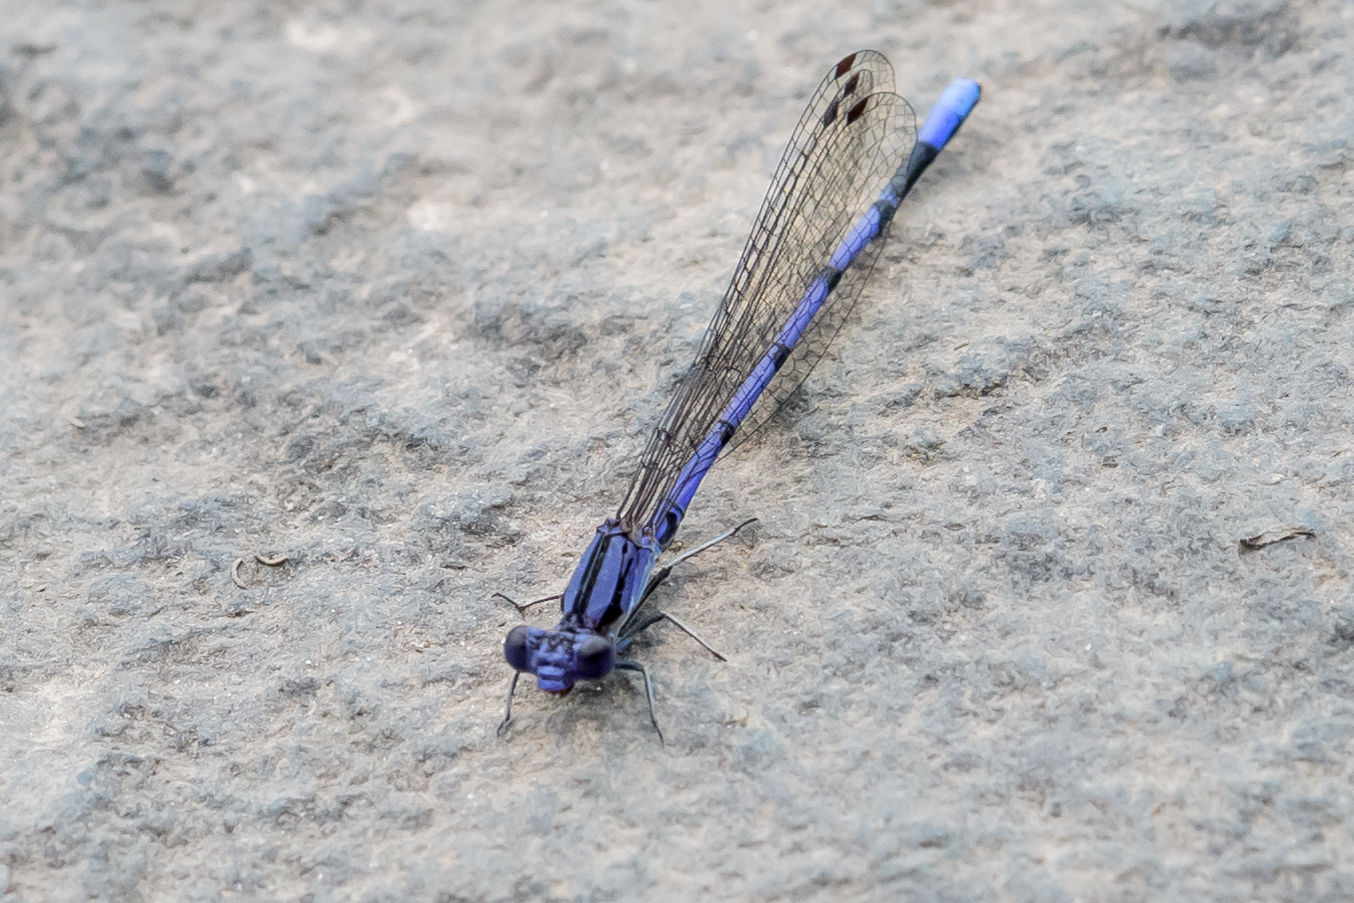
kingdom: Animalia
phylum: Arthropoda
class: Insecta
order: Odonata
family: Coenagrionidae
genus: Argia
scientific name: Argia fumipennis
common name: Variable dancer
